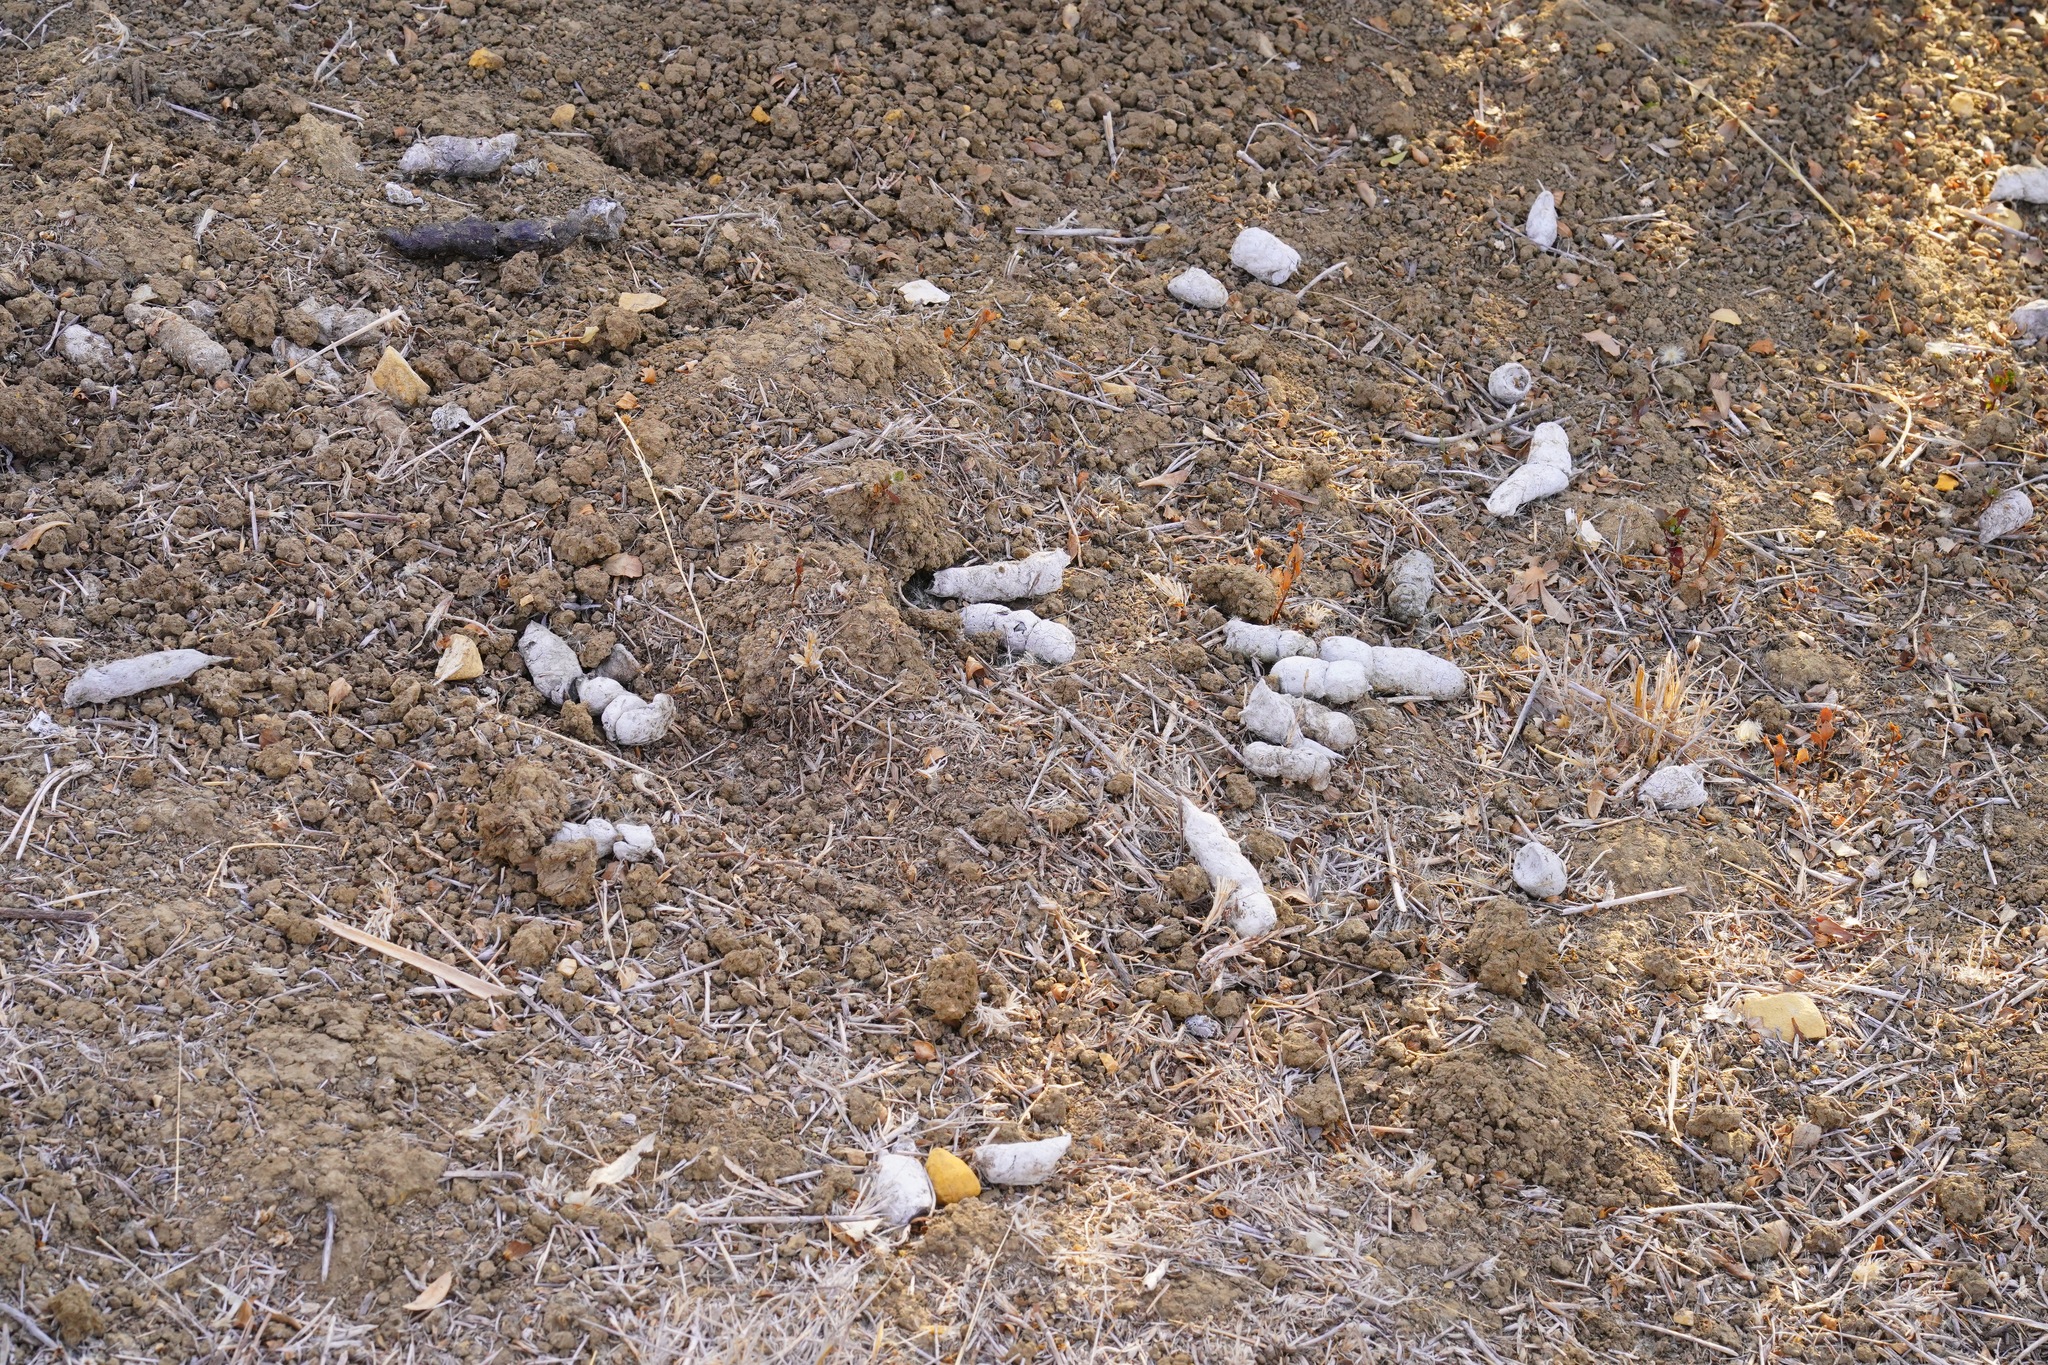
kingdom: Animalia
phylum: Chordata
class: Mammalia
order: Carnivora
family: Felidae
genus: Lynx
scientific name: Lynx rufus
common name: Bobcat
